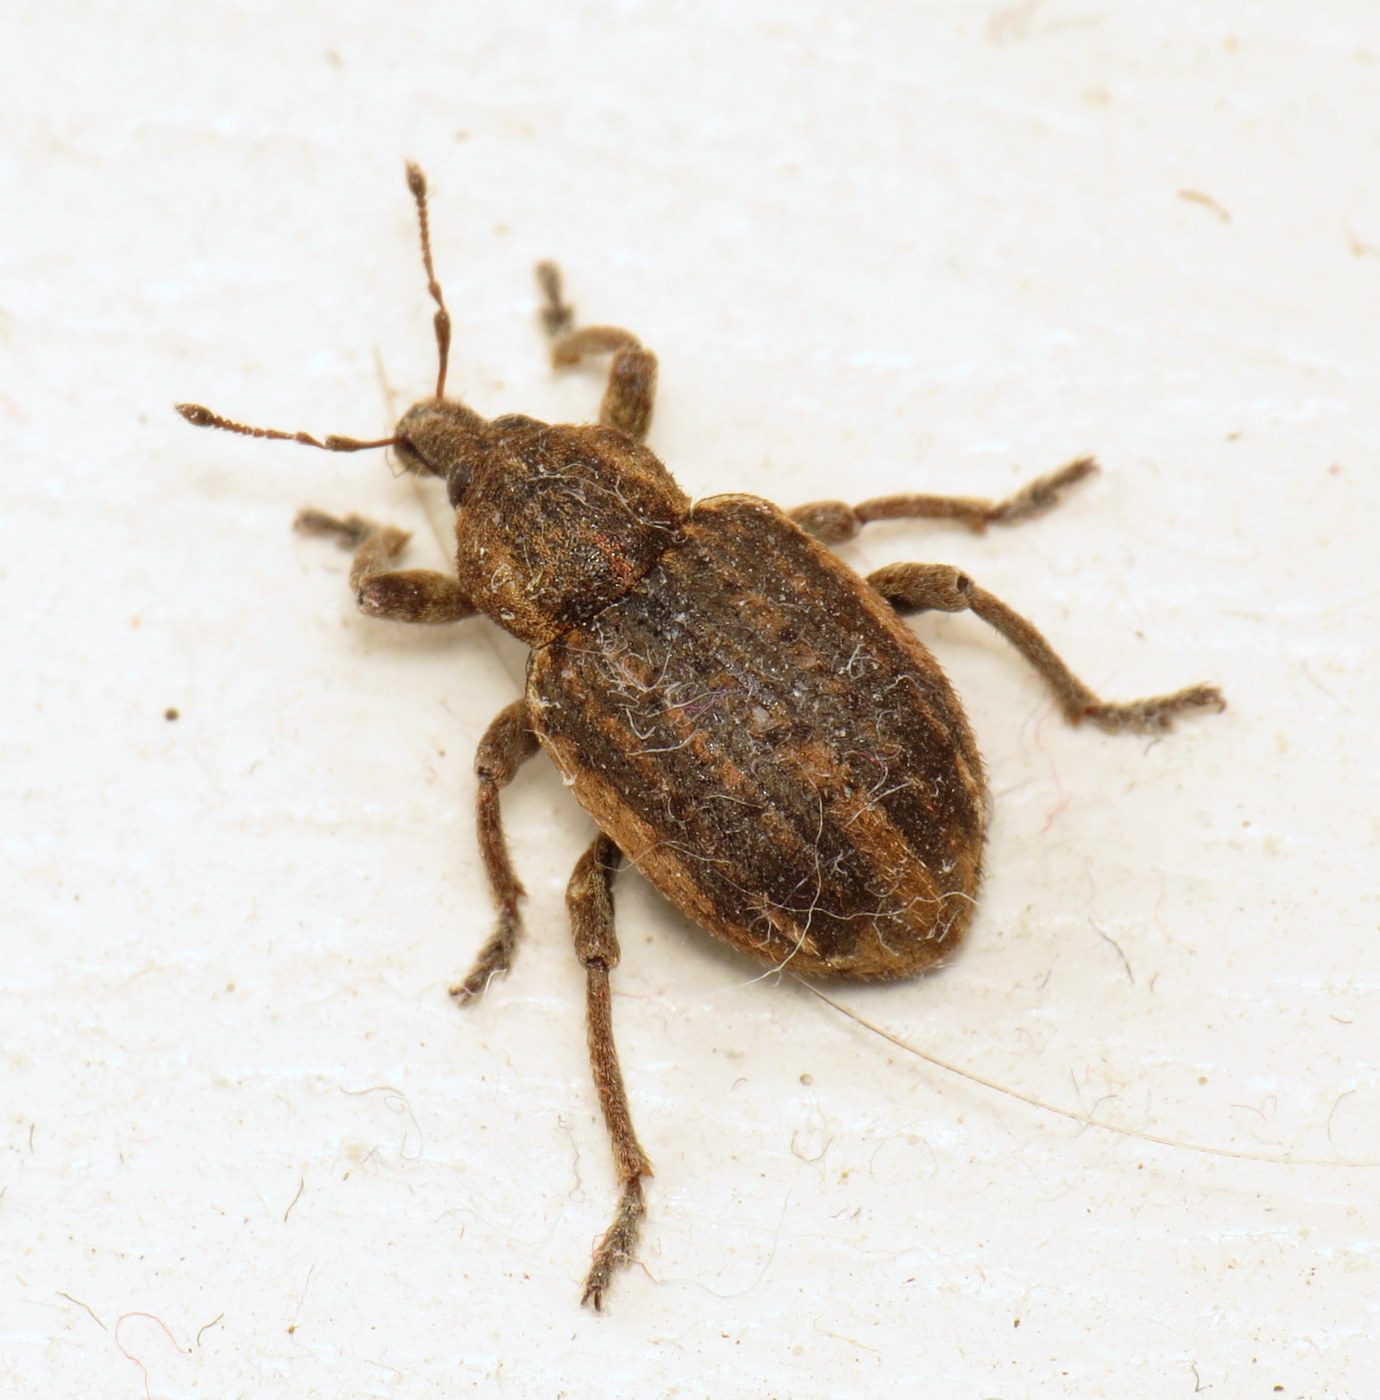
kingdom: Animalia
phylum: Arthropoda
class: Insecta
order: Coleoptera
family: Curculionidae
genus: Brachypera
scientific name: Brachypera zoilus
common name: Clover leaf weevil
